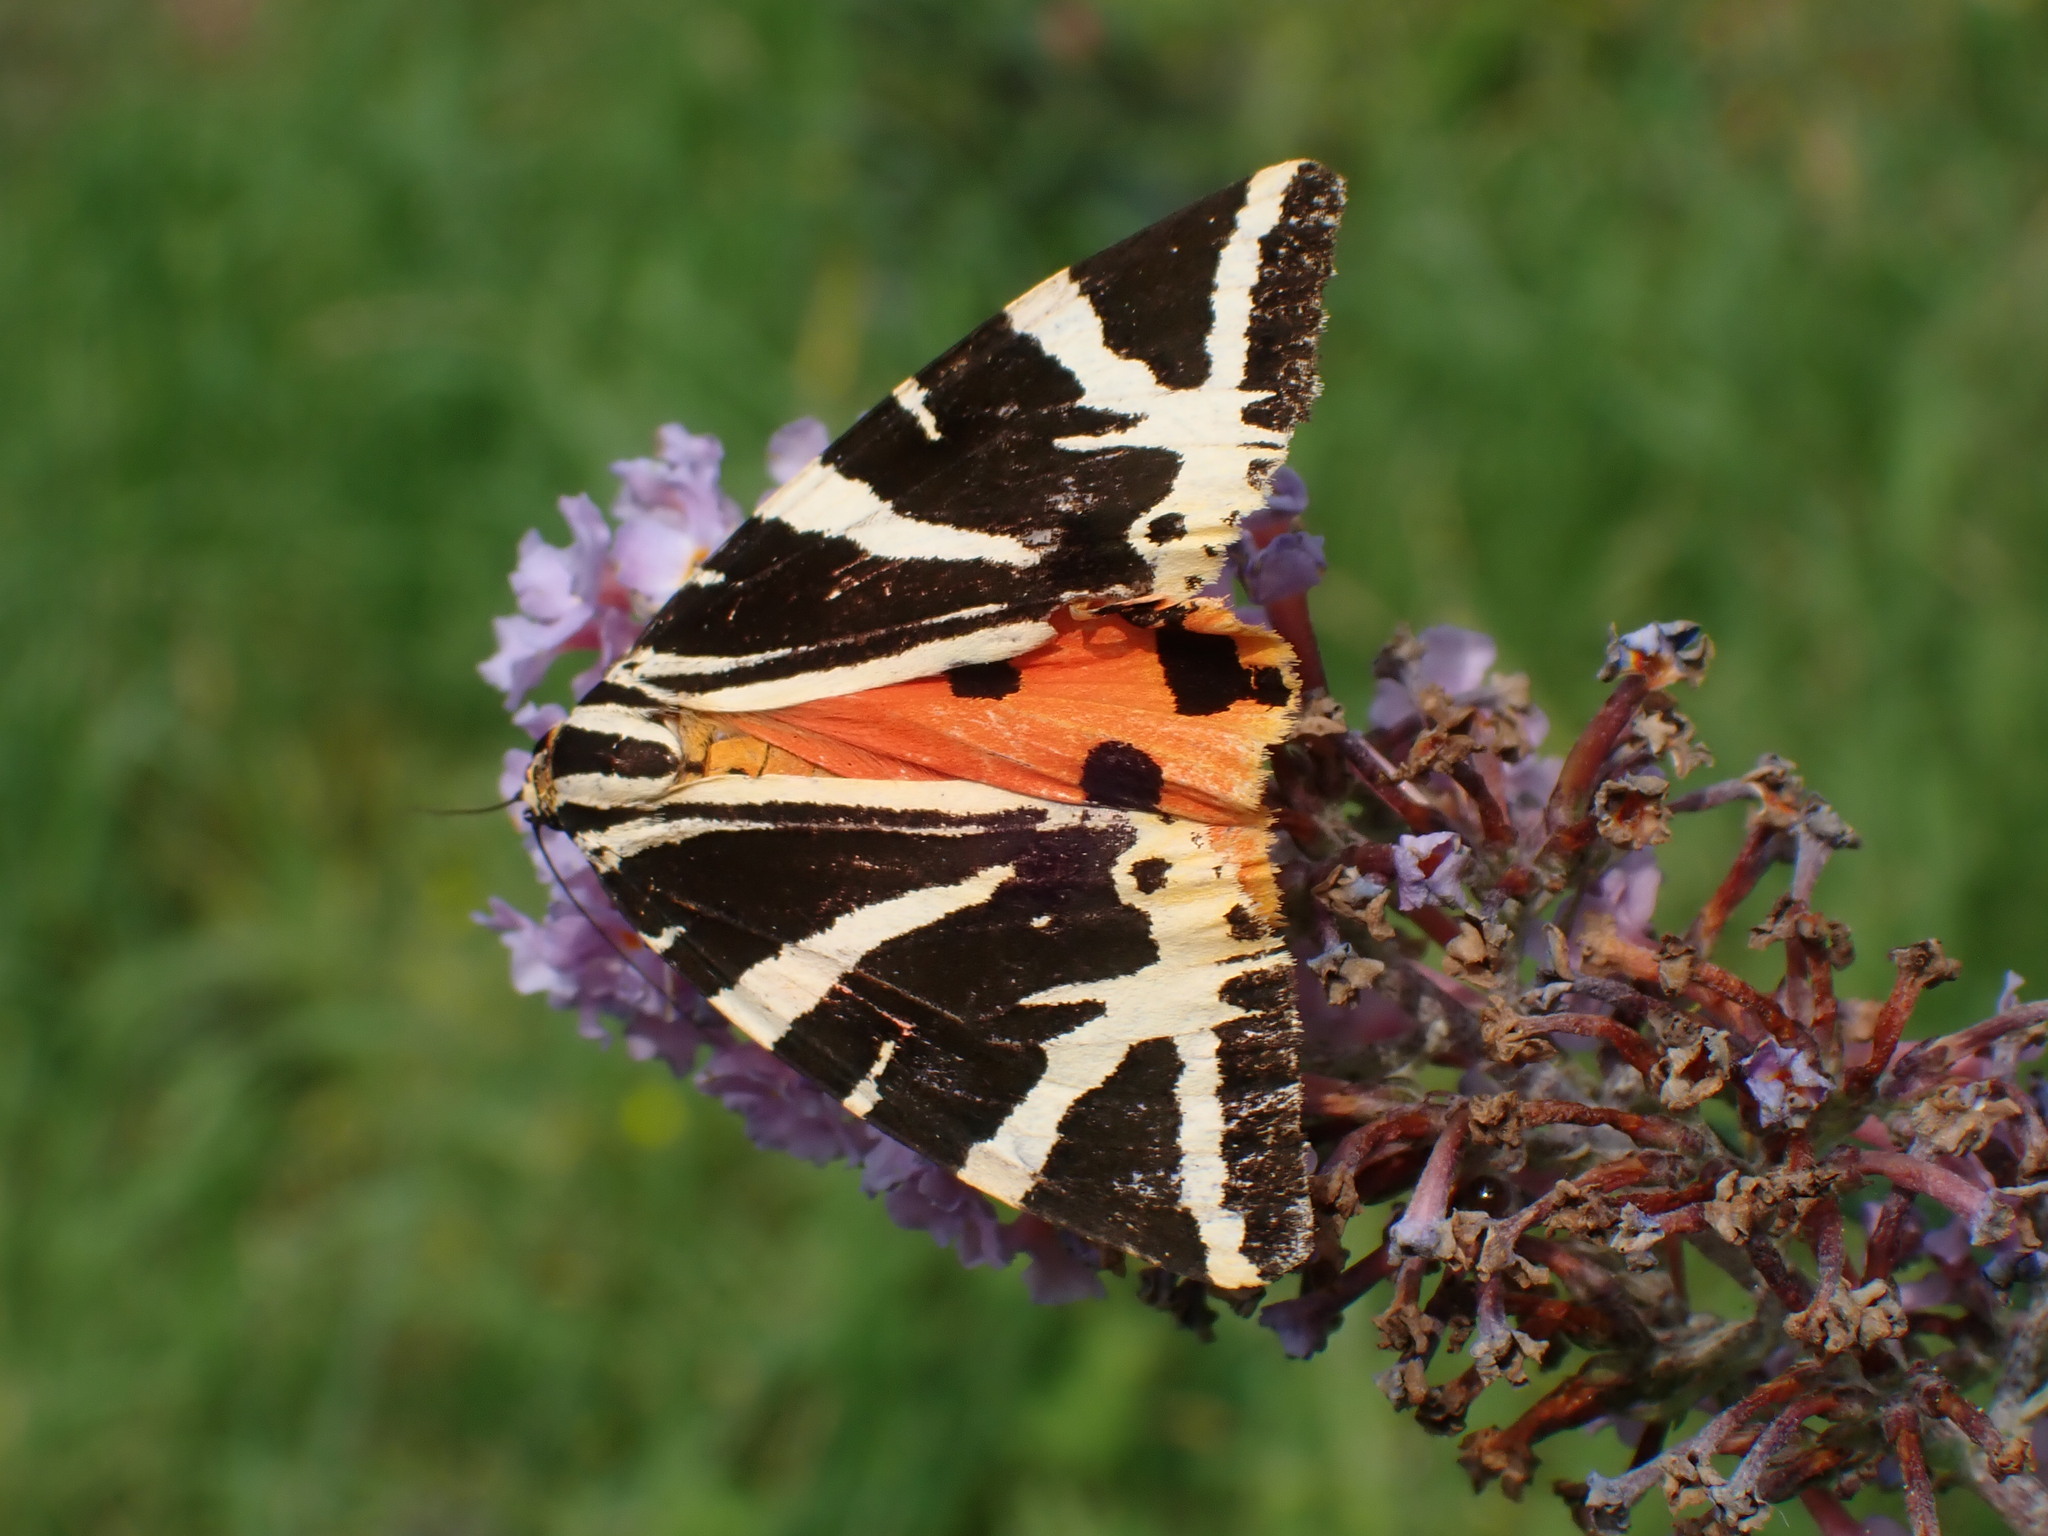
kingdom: Animalia
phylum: Arthropoda
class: Insecta
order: Lepidoptera
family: Erebidae
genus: Euplagia
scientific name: Euplagia quadripunctaria
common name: Jersey tiger
